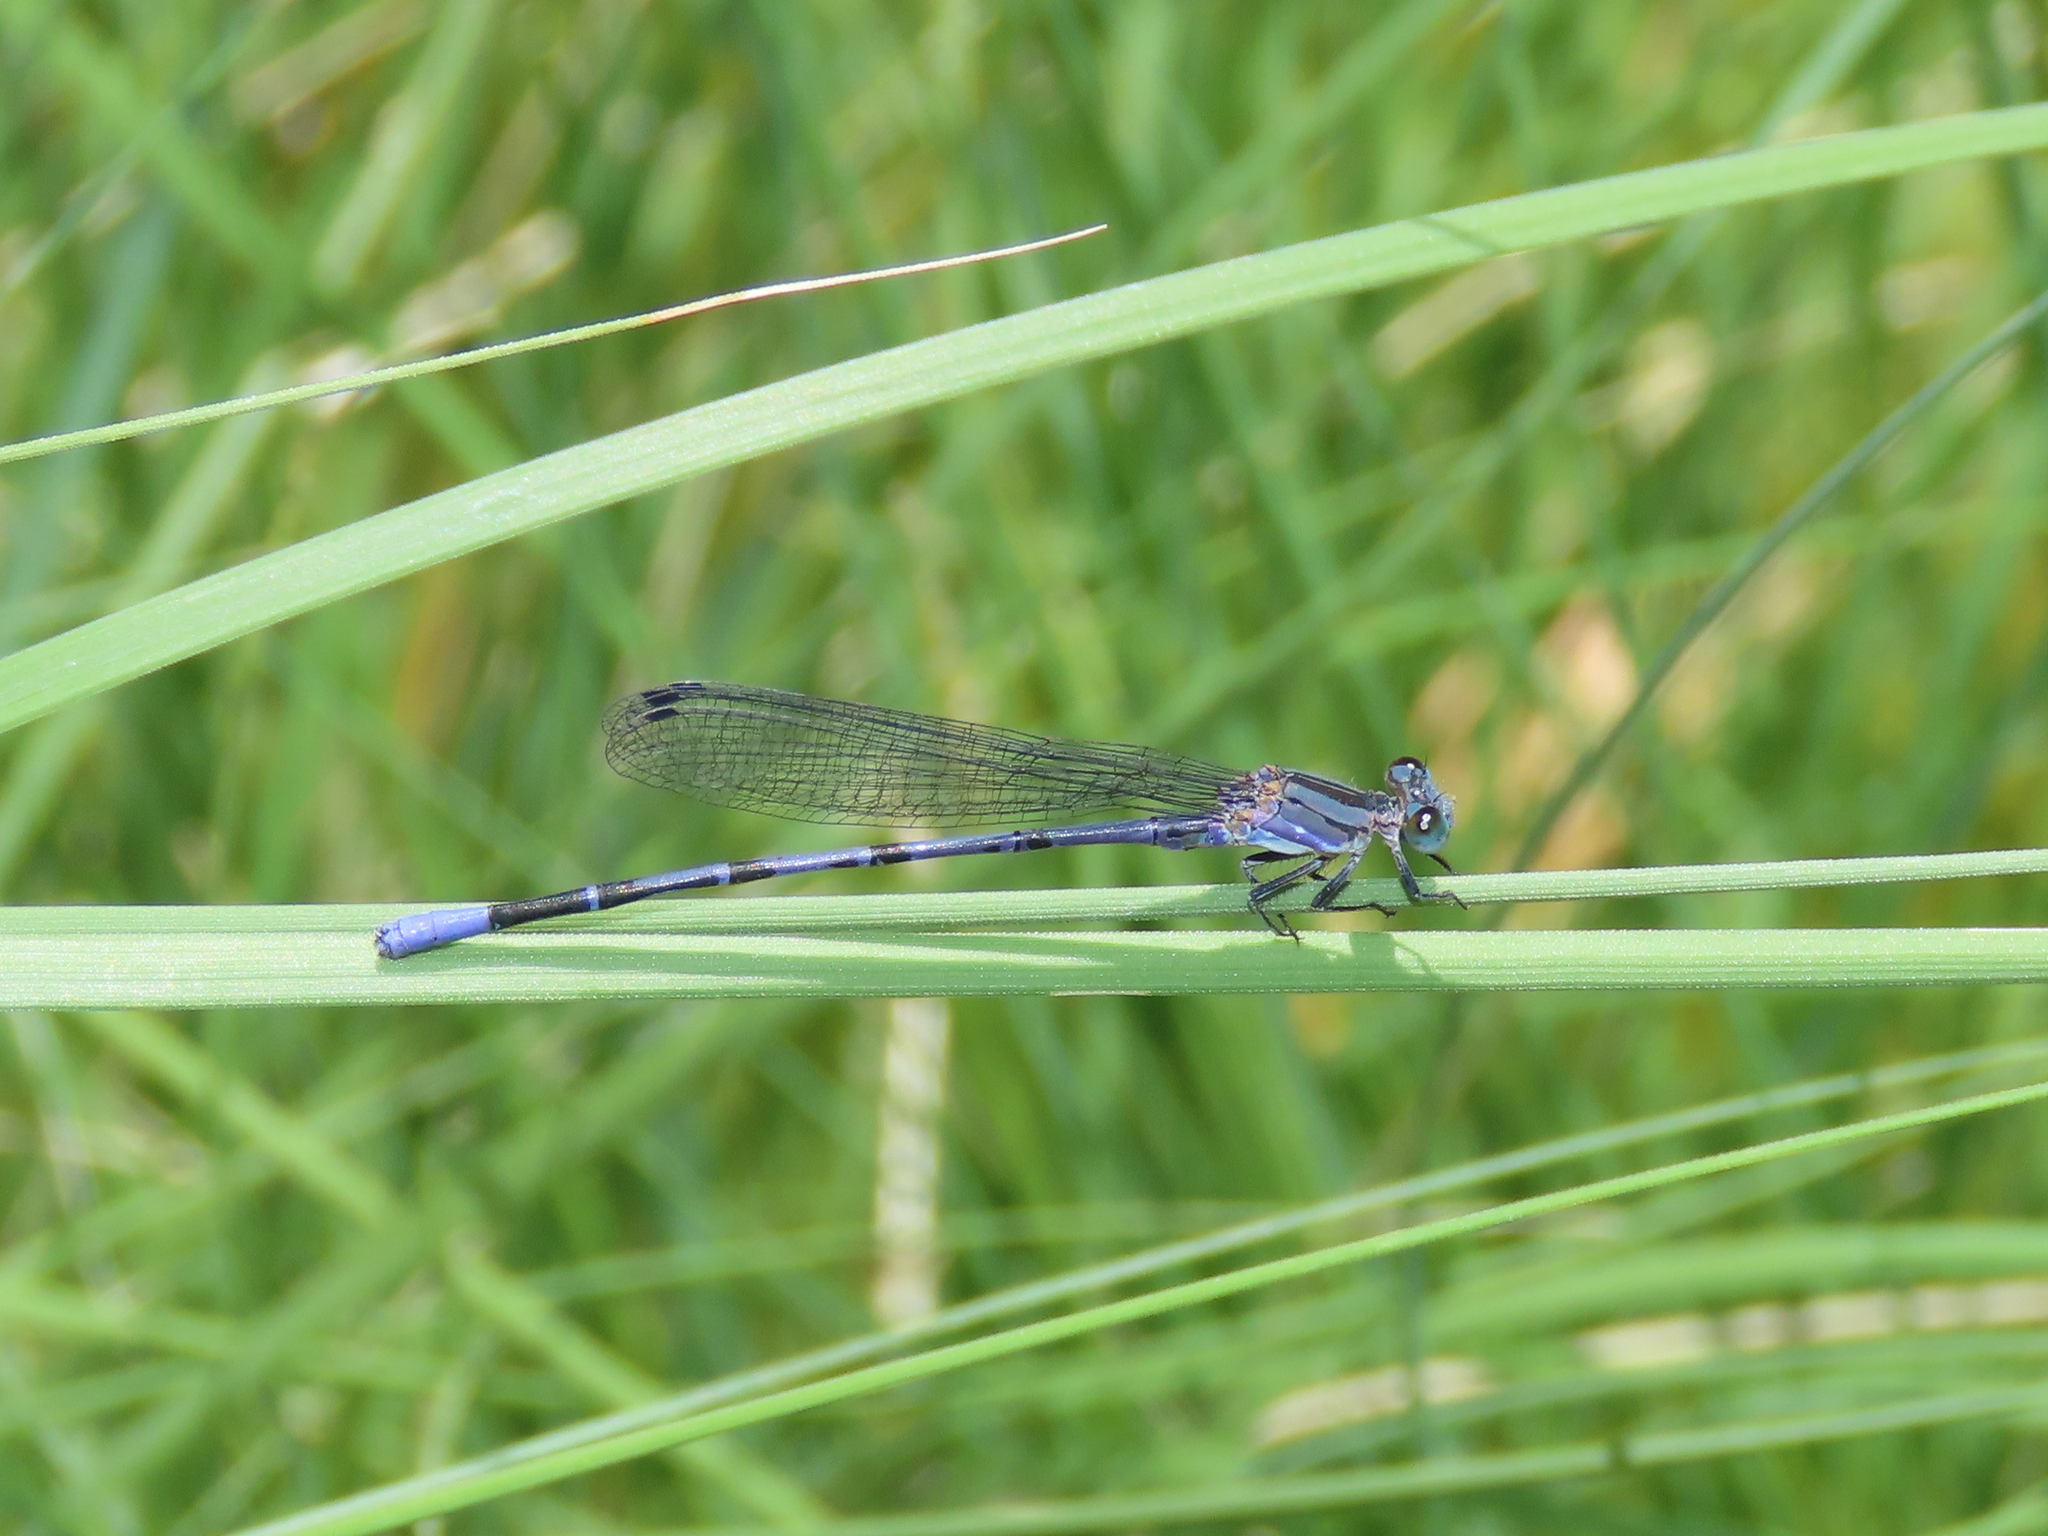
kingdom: Animalia
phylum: Arthropoda
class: Insecta
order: Odonata
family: Coenagrionidae
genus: Argia
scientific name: Argia funebris
